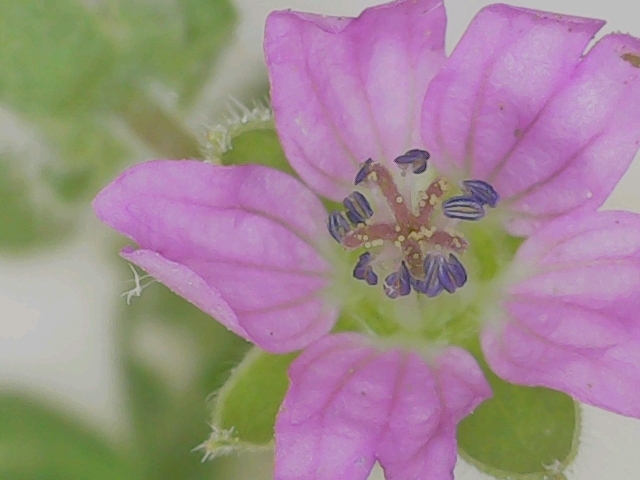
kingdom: Plantae
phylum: Tracheophyta
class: Magnoliopsida
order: Geraniales
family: Geraniaceae
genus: Geranium
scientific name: Geranium molle
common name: Dove's-foot crane's-bill
